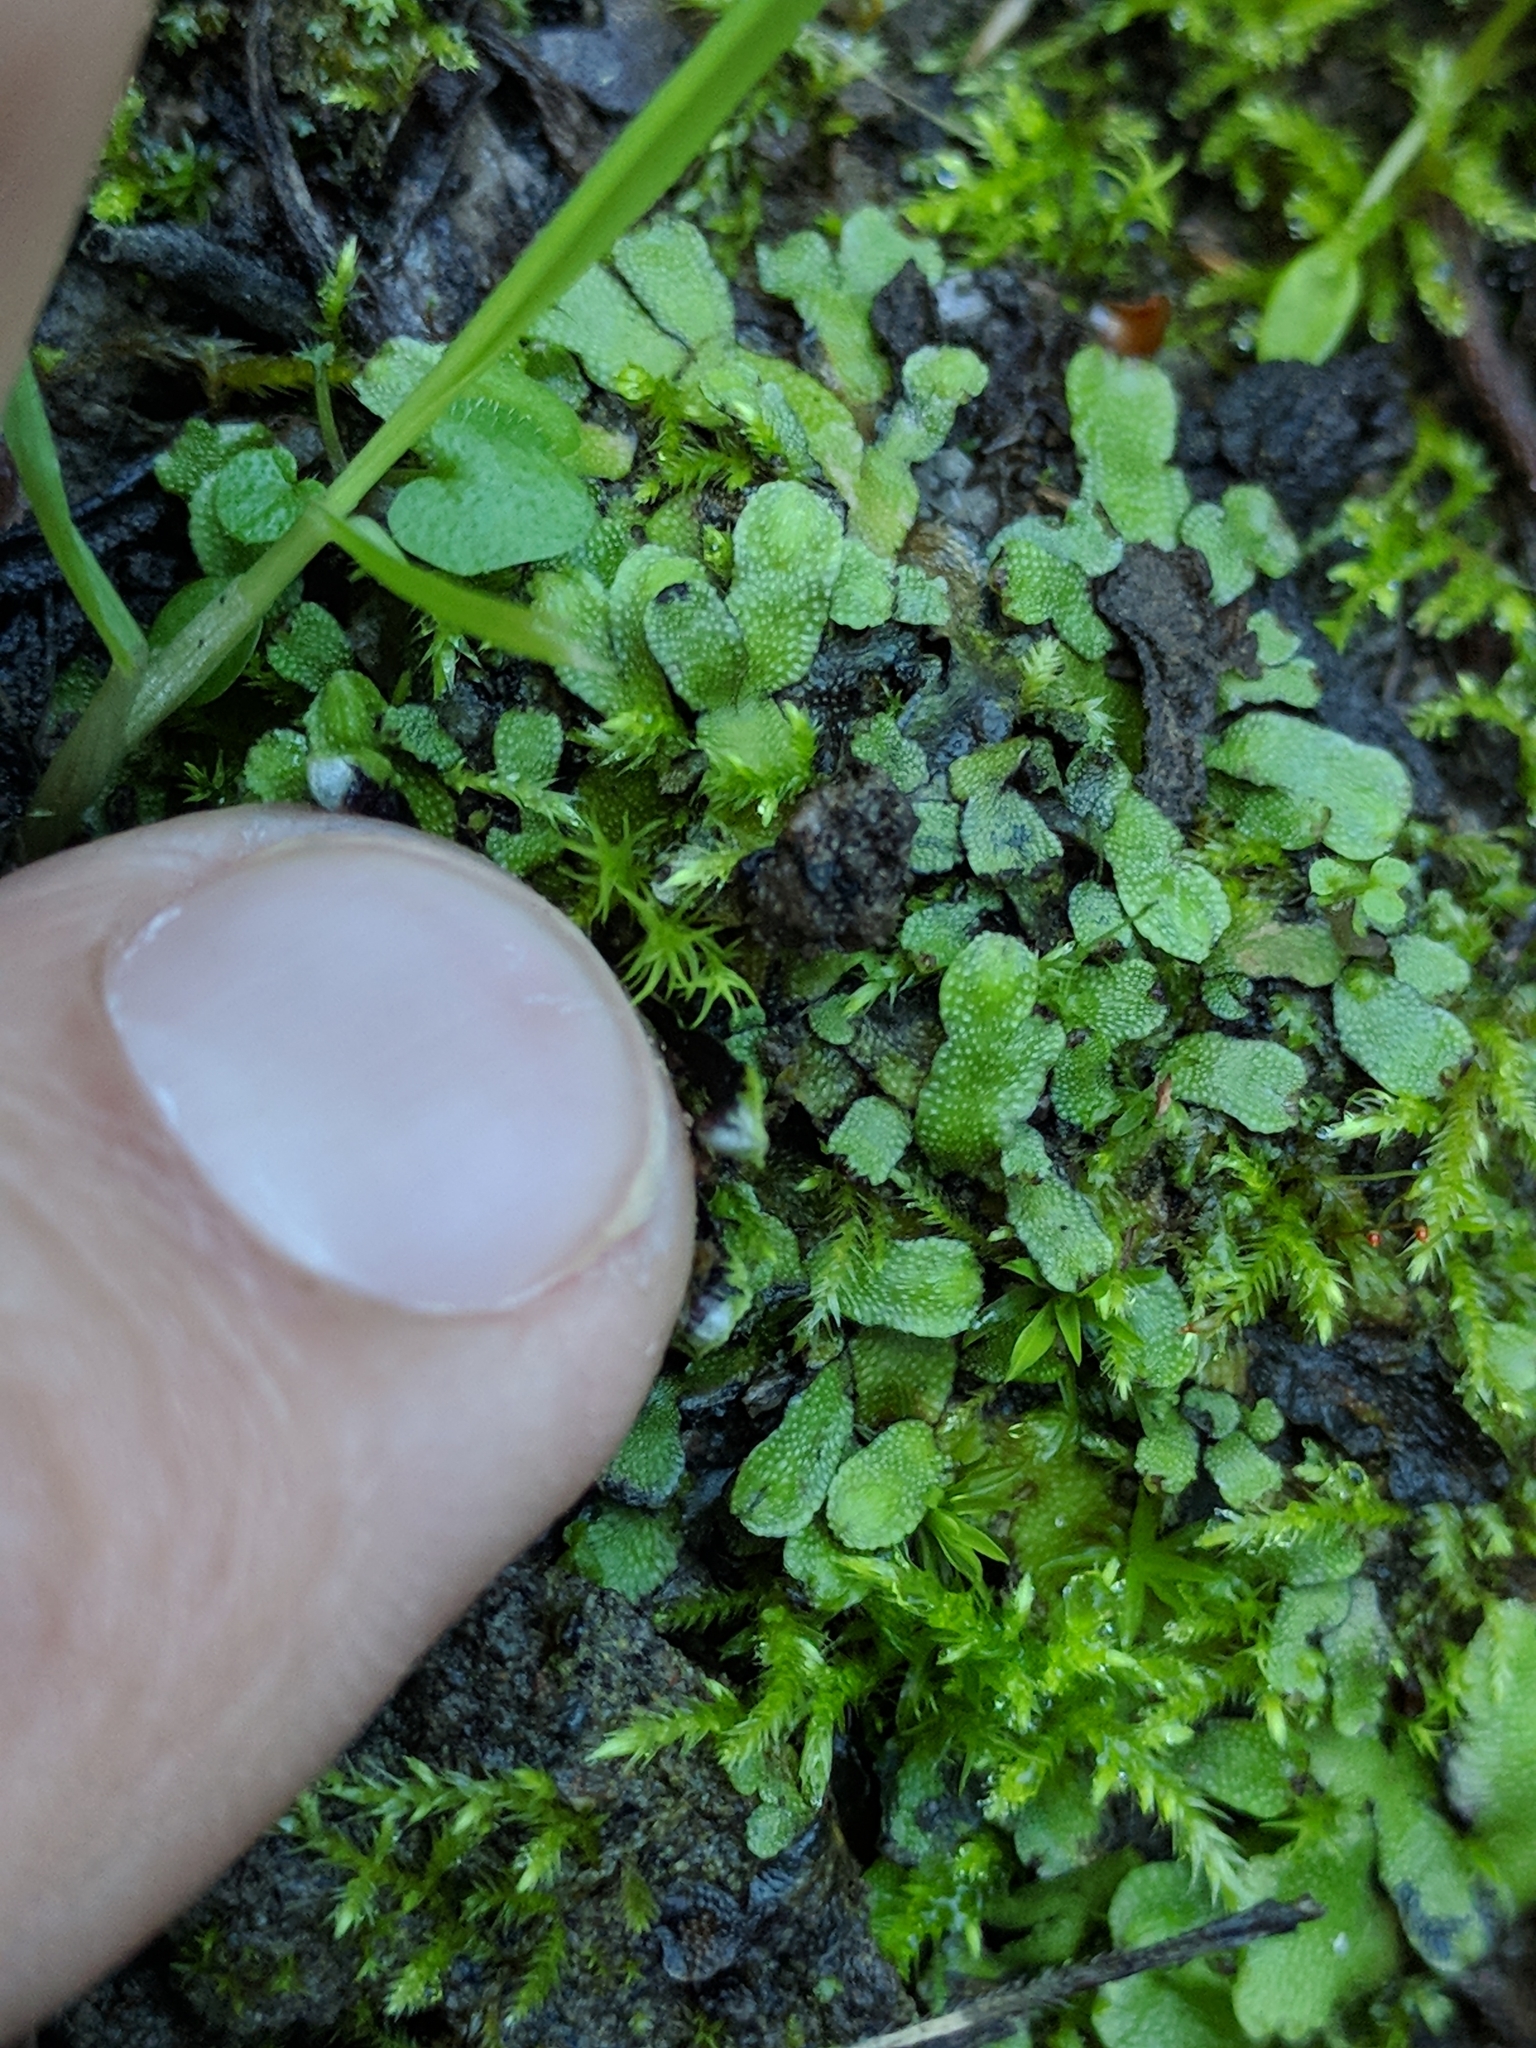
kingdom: Plantae
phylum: Marchantiophyta
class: Marchantiopsida
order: Marchantiales
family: Targioniaceae
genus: Targionia
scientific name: Targionia hypophylla
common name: Orobus-seed liverwort
